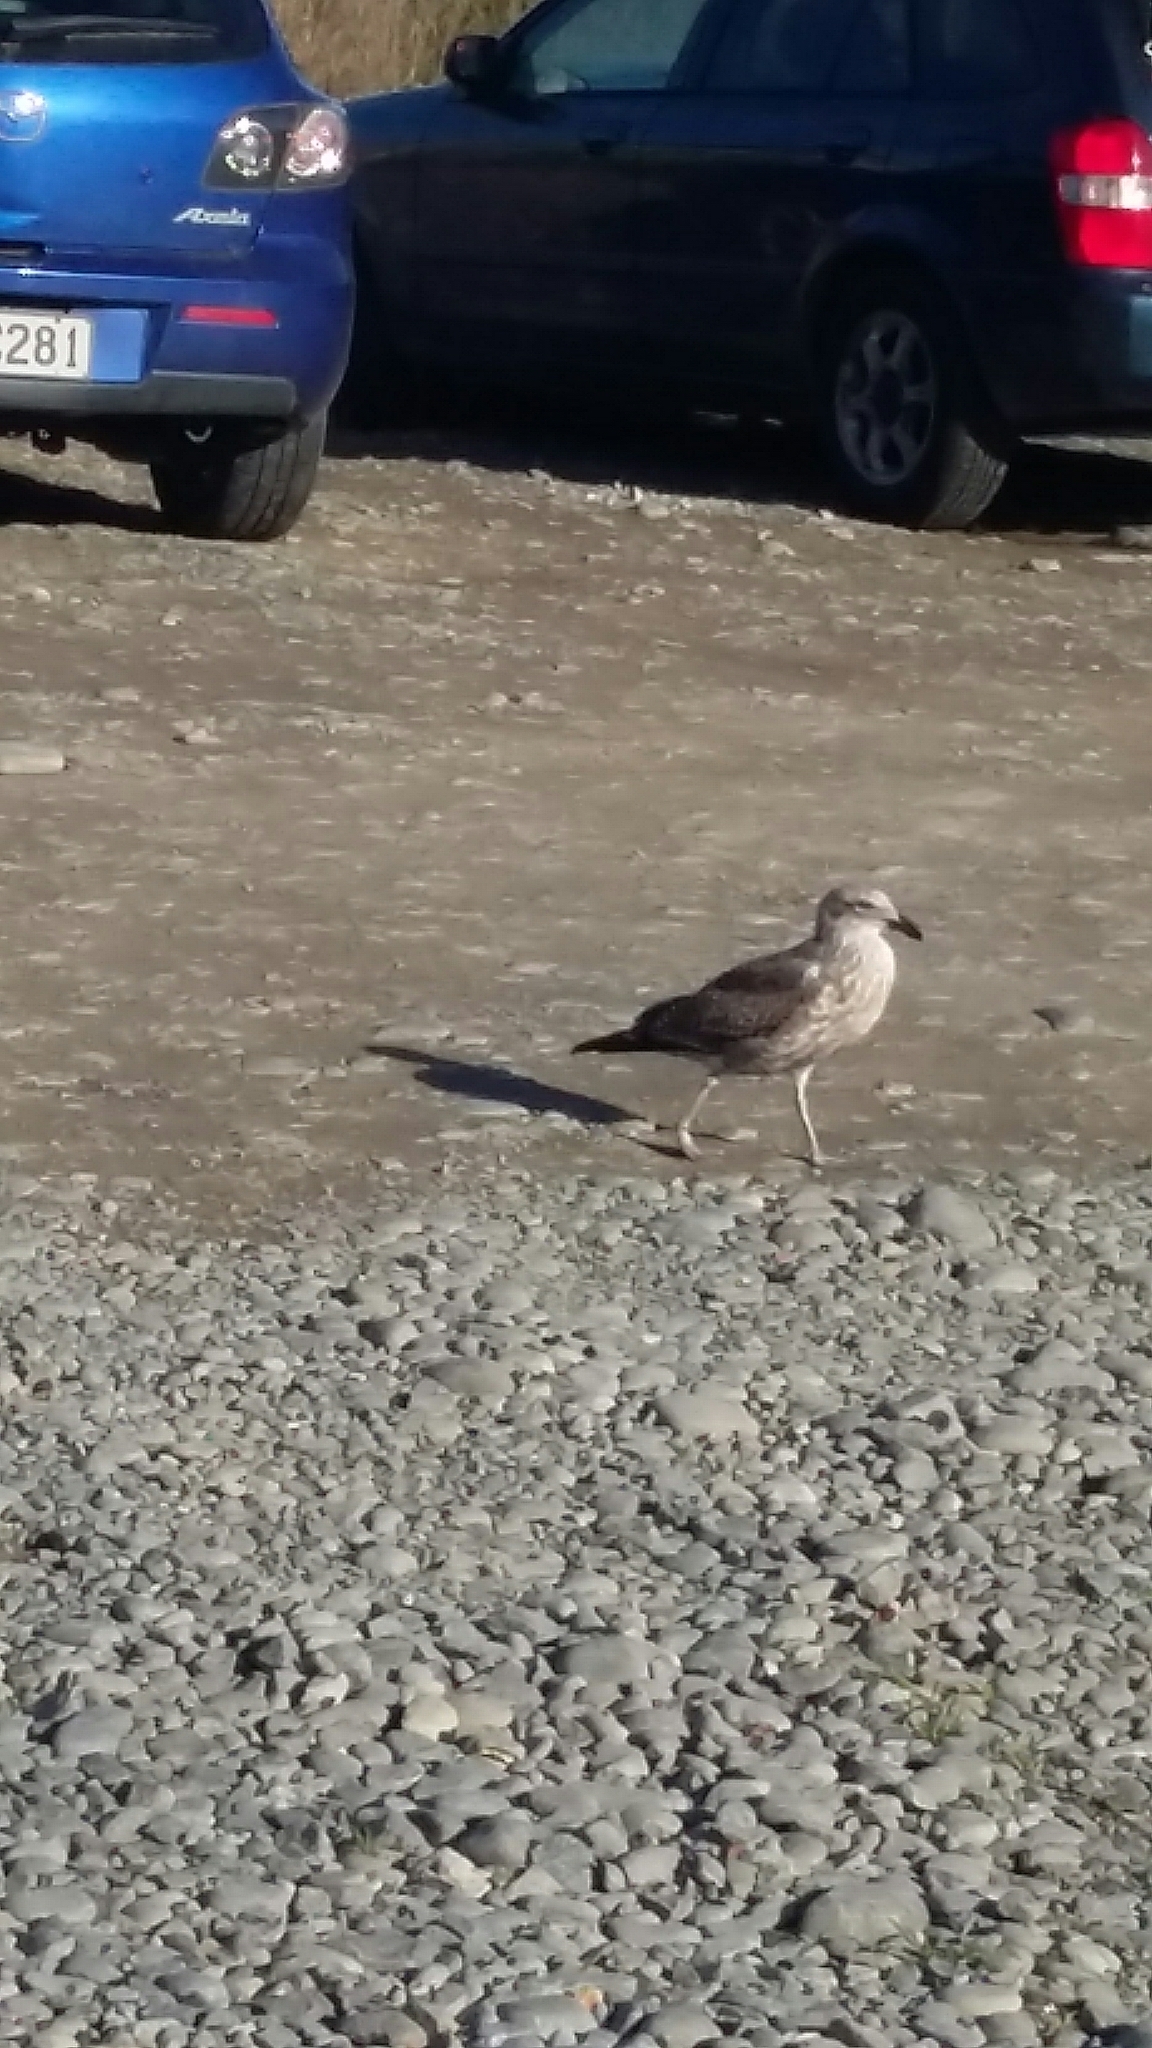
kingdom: Animalia
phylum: Chordata
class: Aves
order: Charadriiformes
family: Laridae
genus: Larus
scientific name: Larus dominicanus
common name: Kelp gull
